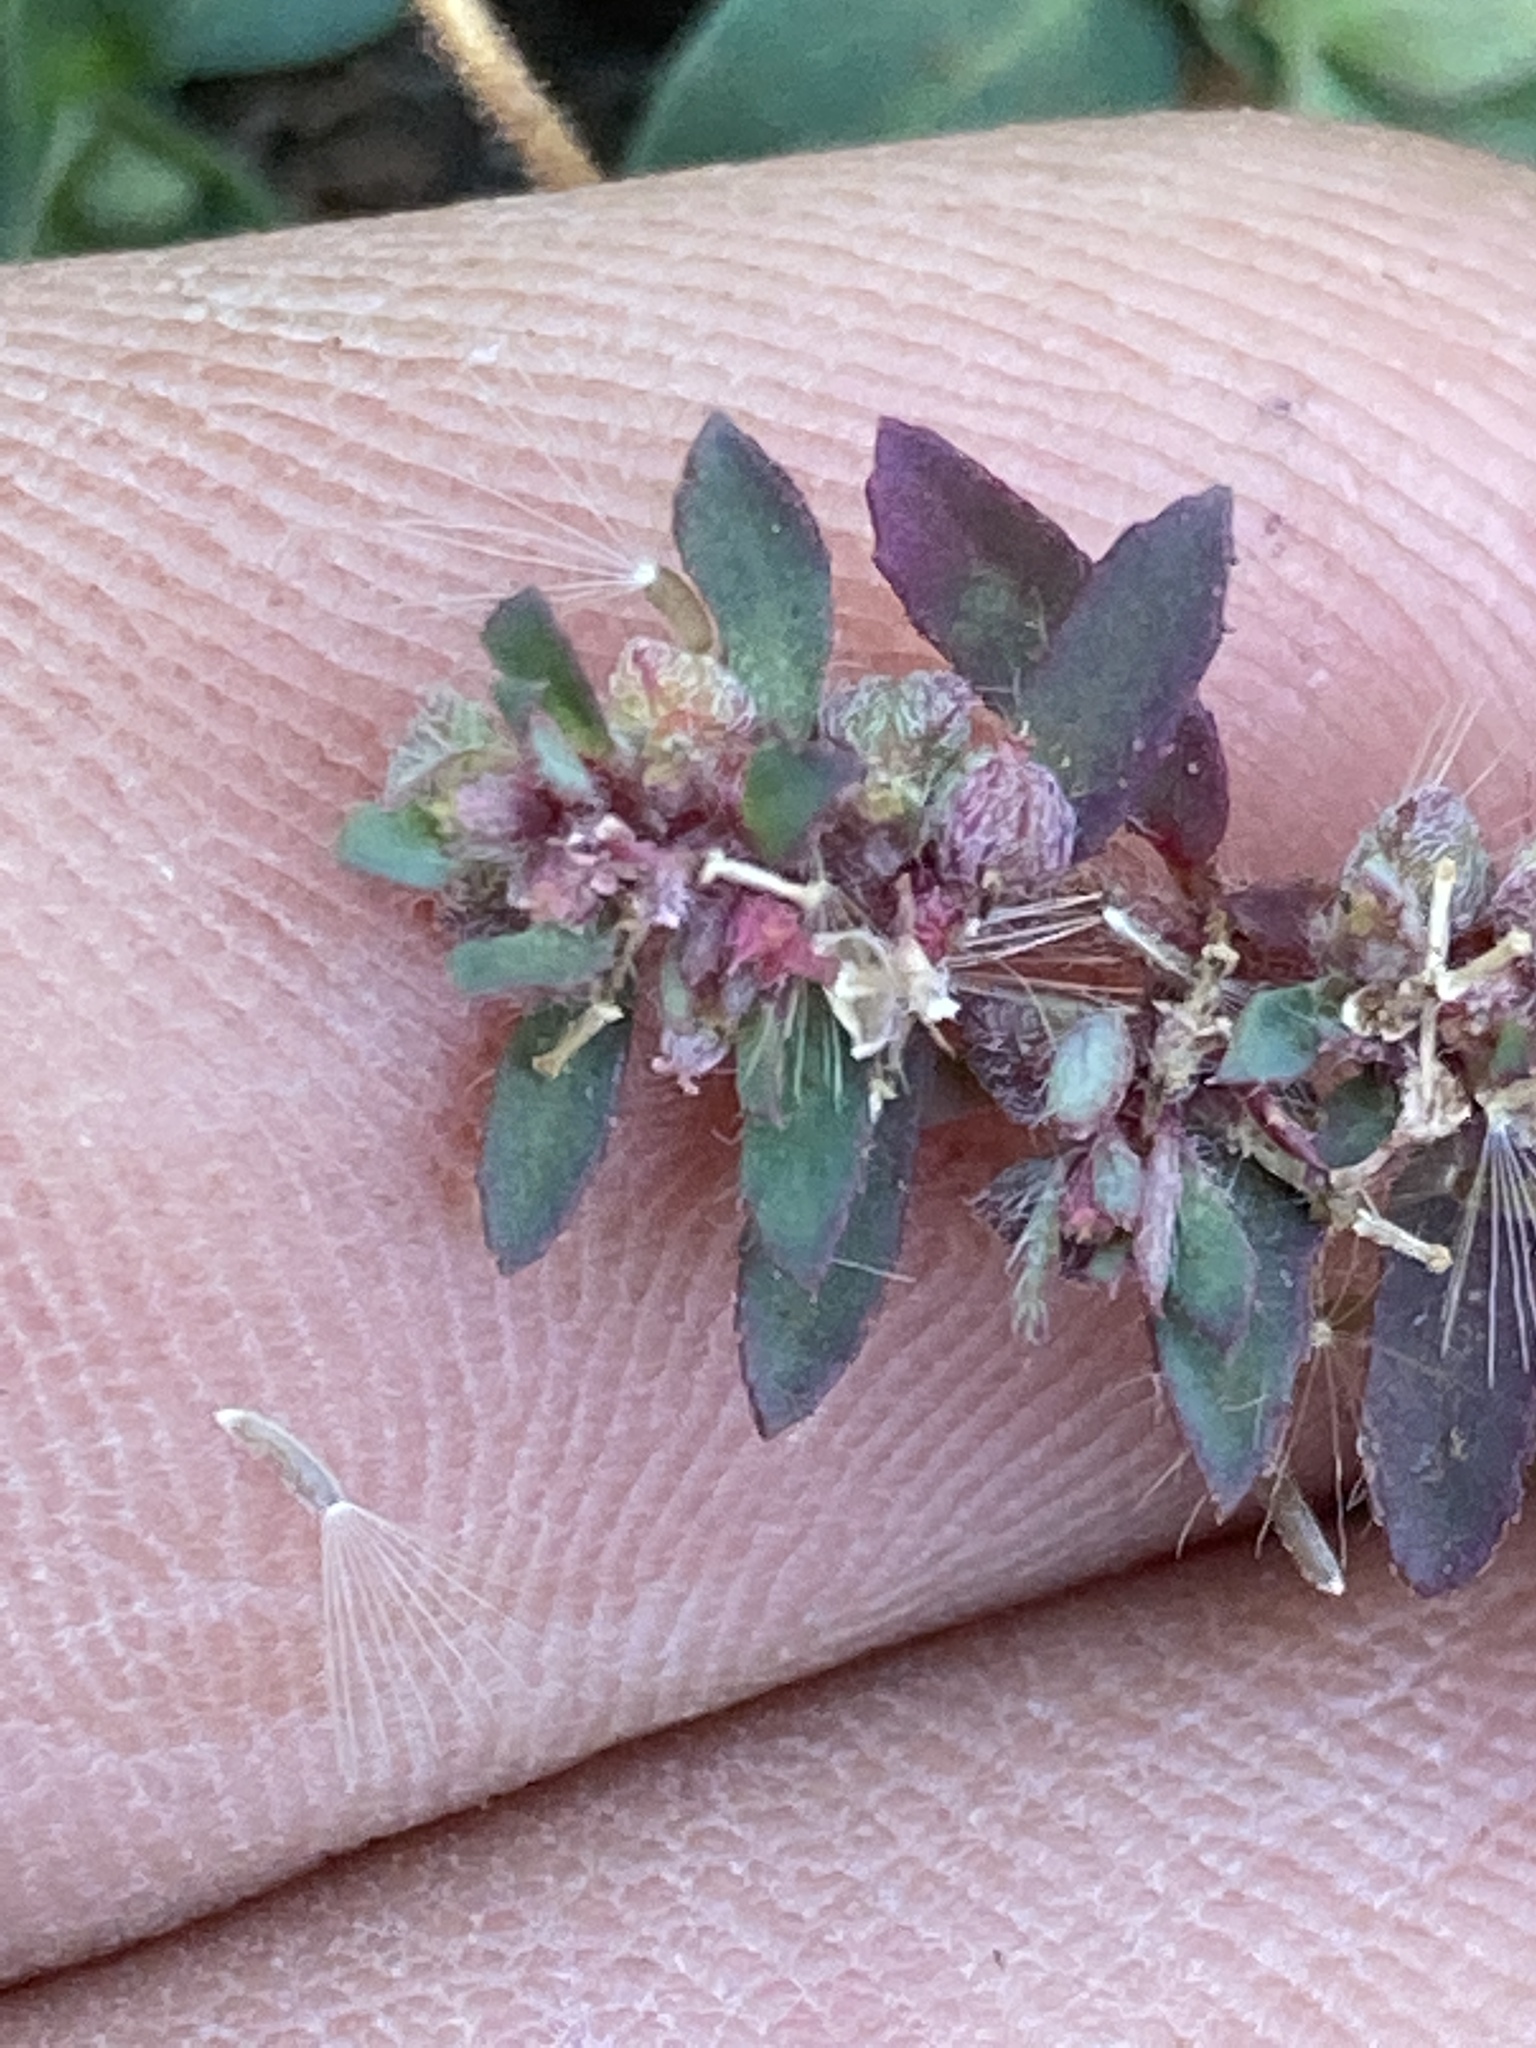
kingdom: Plantae
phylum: Tracheophyta
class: Magnoliopsida
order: Malpighiales
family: Euphorbiaceae
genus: Euphorbia
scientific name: Euphorbia maculata
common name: Spotted spurge
